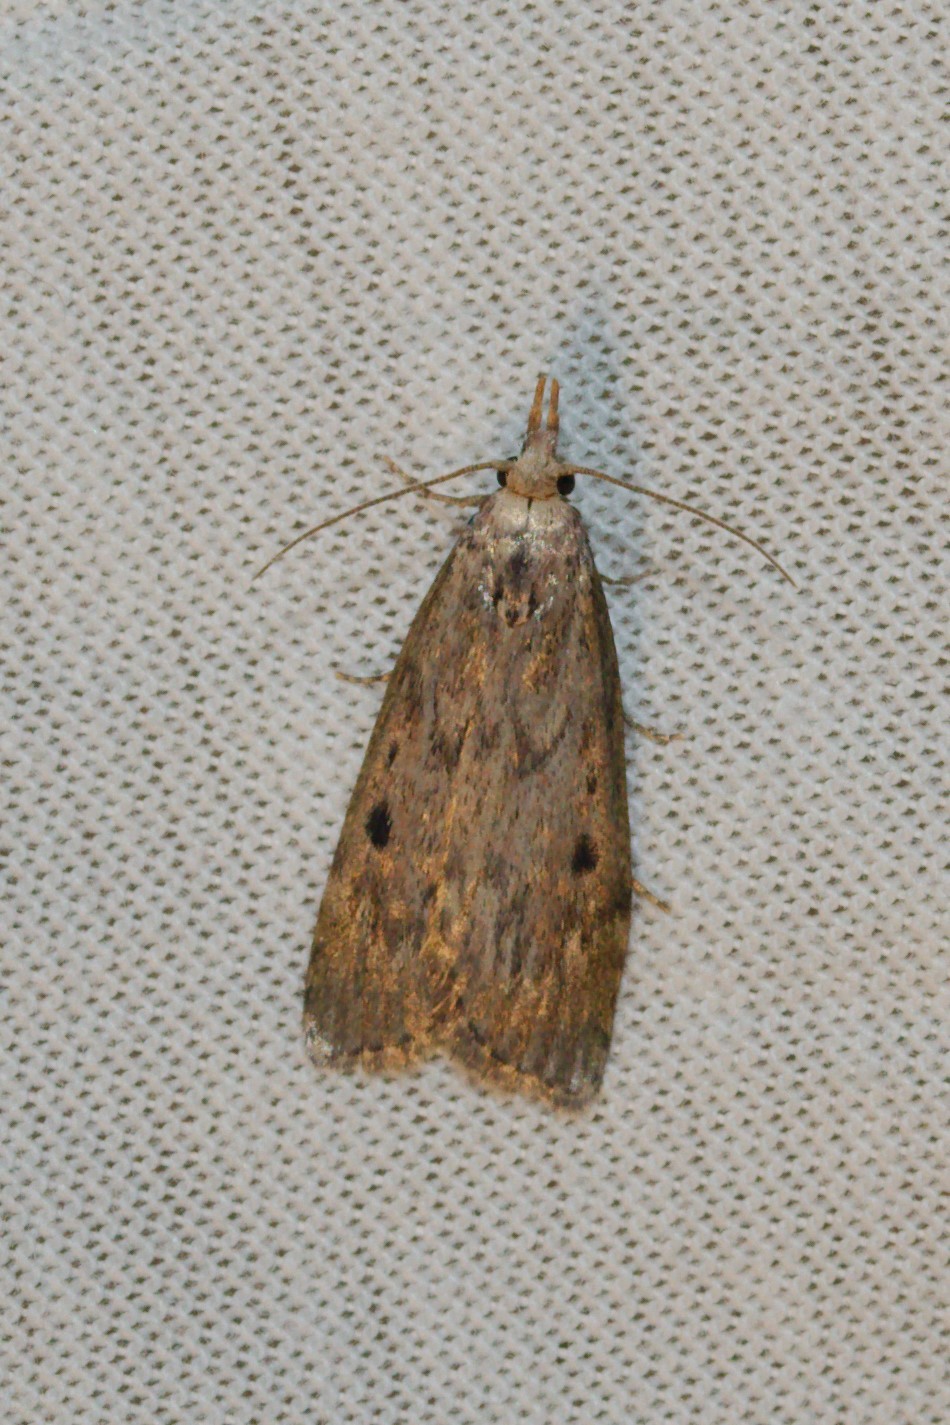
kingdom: Animalia
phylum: Arthropoda
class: Insecta
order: Lepidoptera
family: Pyralidae
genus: Aphomia
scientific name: Aphomia sociella
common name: Bee moth
